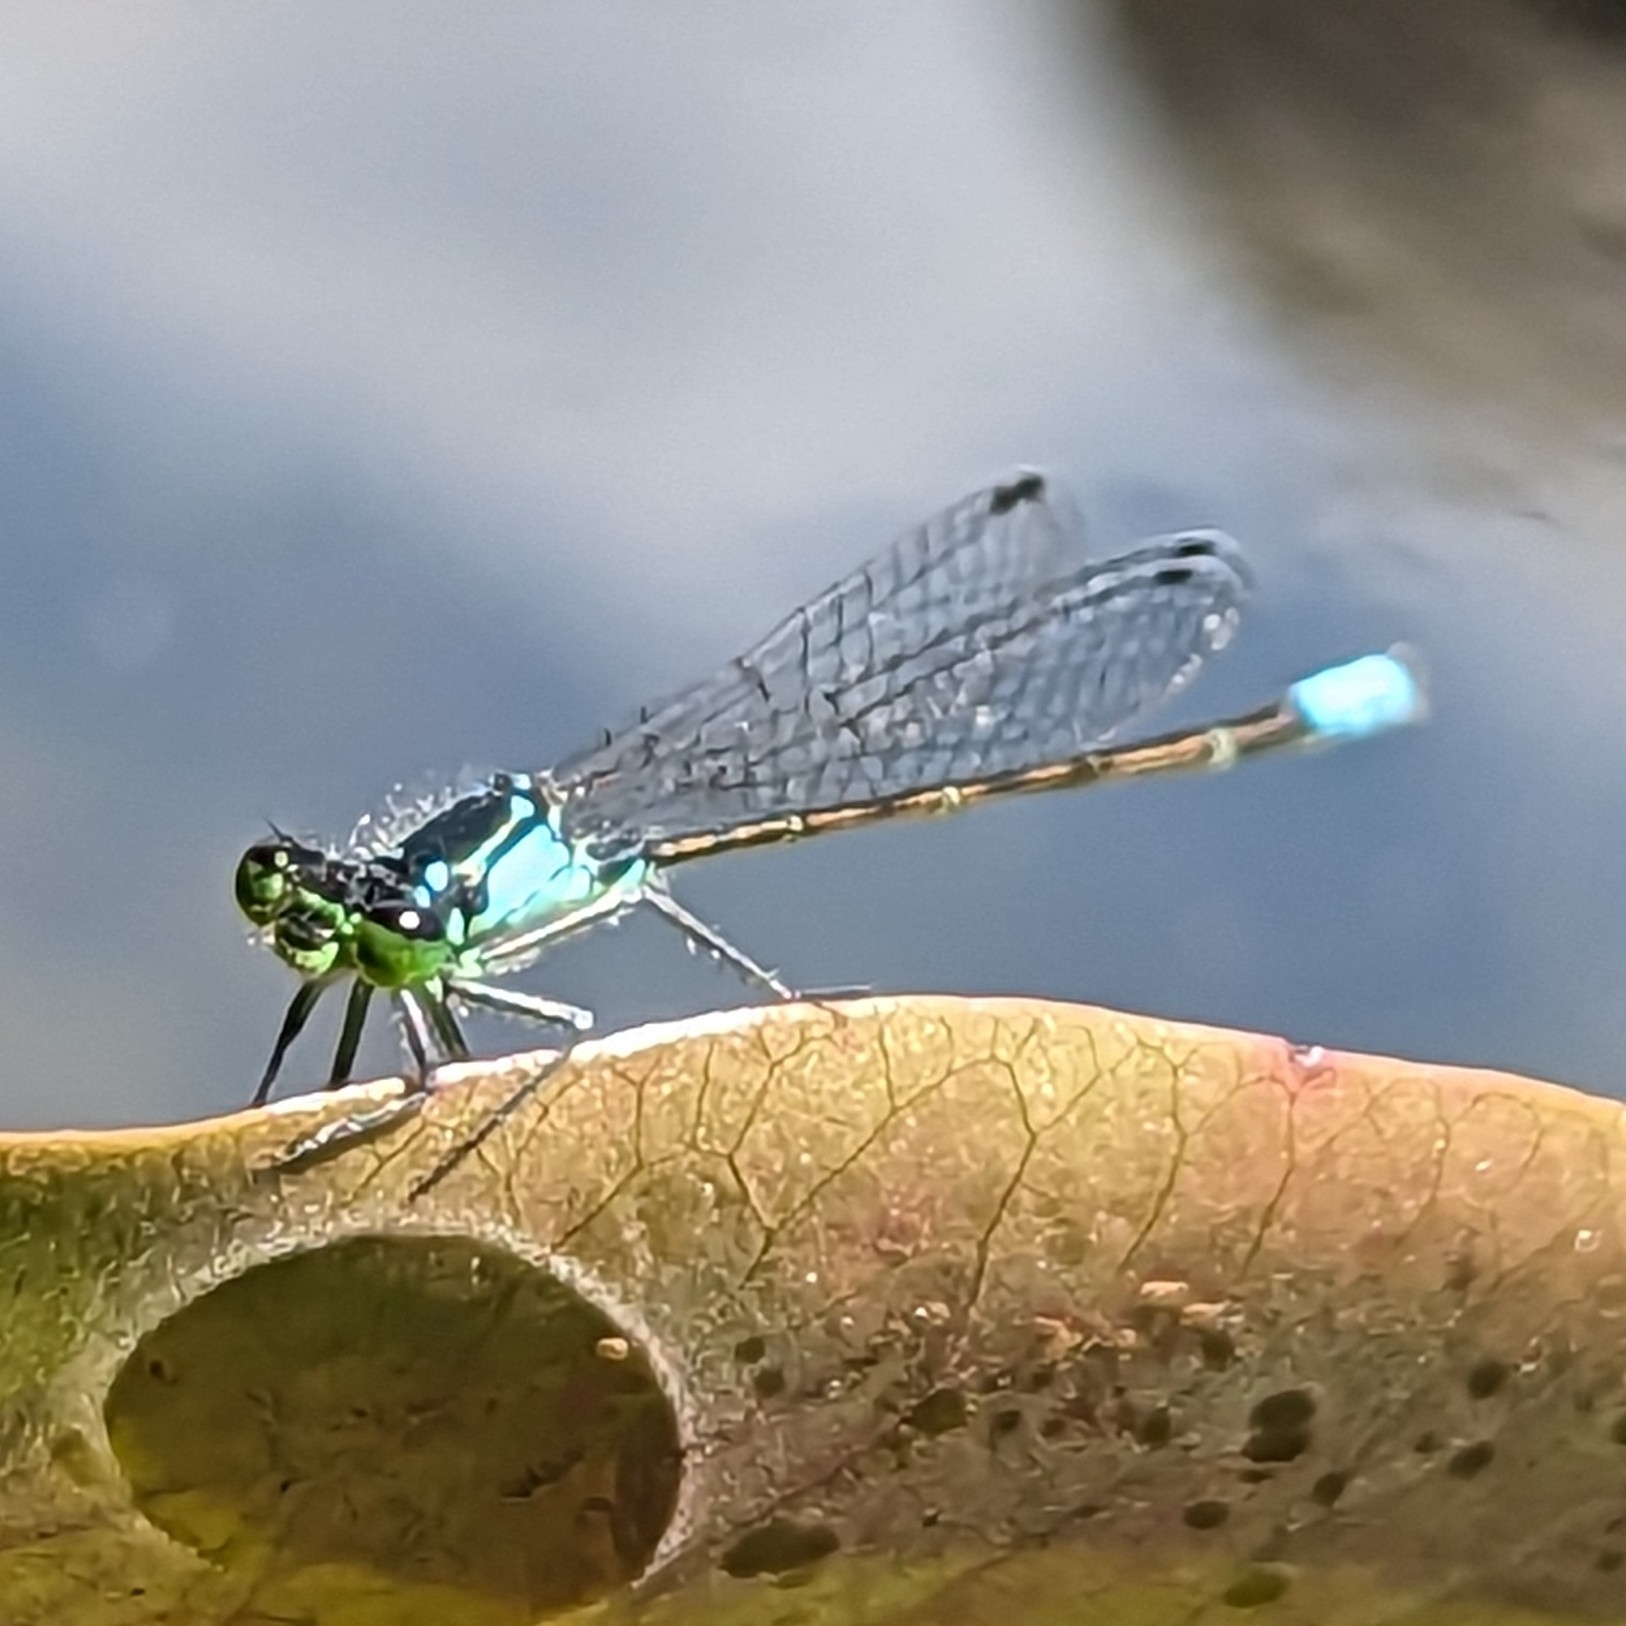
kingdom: Animalia
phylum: Arthropoda
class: Insecta
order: Odonata
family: Coenagrionidae
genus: Ischnura
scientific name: Ischnura cervula
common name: Pacific forktail
